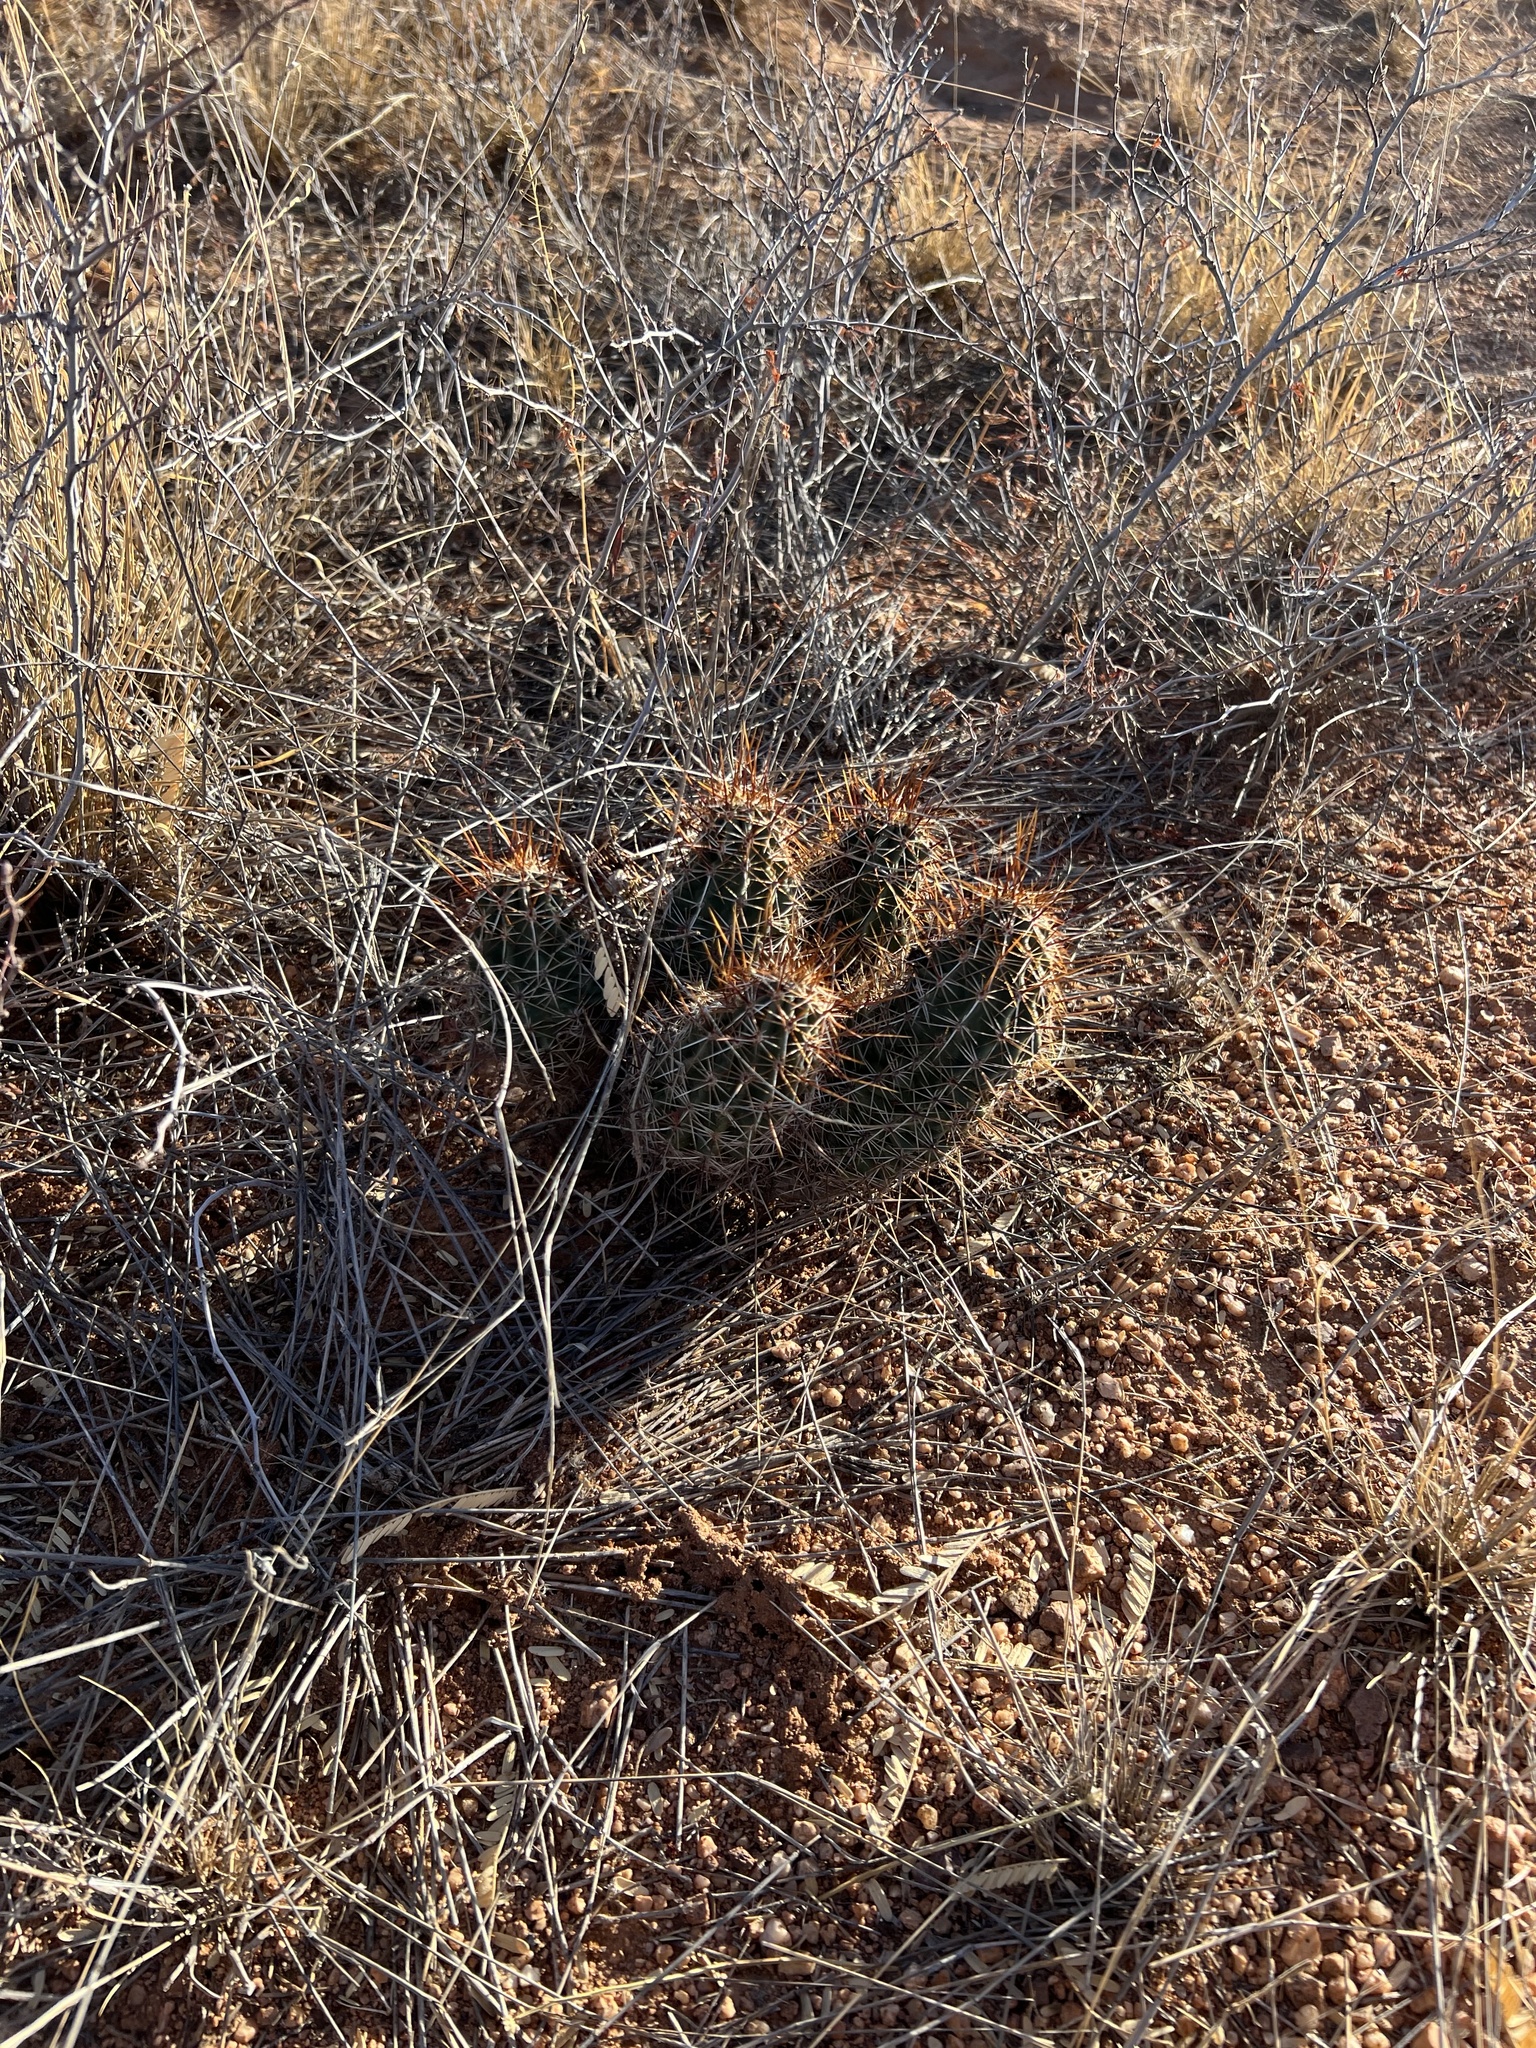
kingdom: Plantae
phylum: Tracheophyta
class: Magnoliopsida
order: Caryophyllales
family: Cactaceae
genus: Echinocereus
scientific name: Echinocereus fendleri
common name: Fendler's hedgehog cactus
